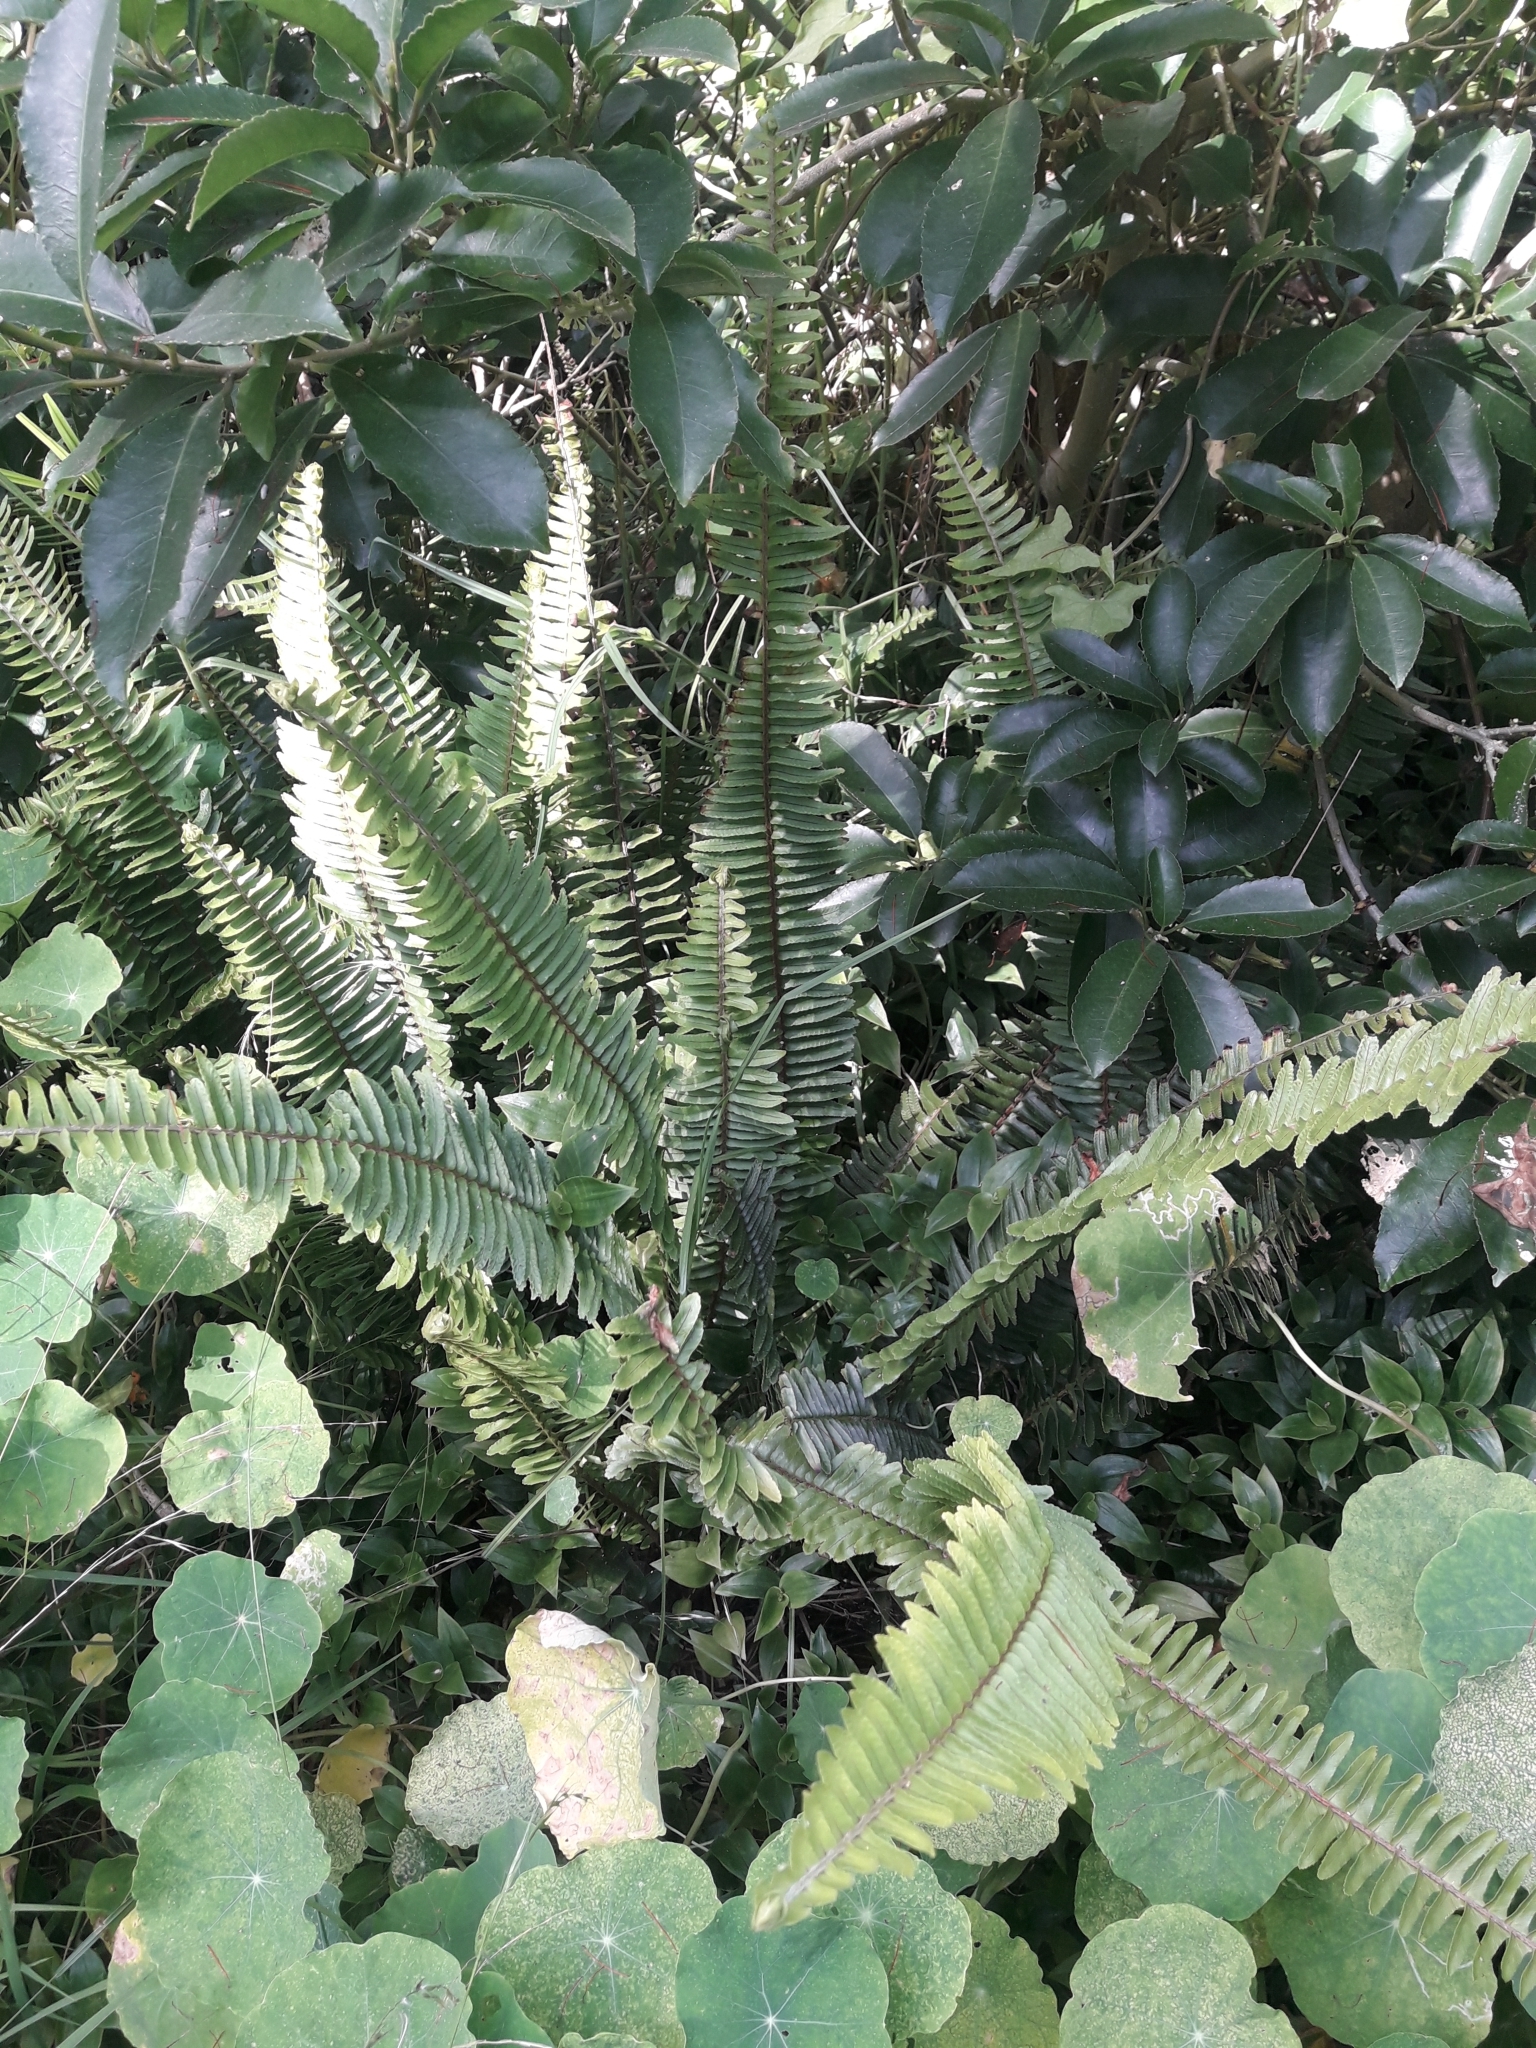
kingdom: Plantae
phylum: Tracheophyta
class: Polypodiopsida
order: Polypodiales
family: Nephrolepidaceae
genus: Nephrolepis
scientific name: Nephrolepis cordifolia
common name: Narrow swordfern
